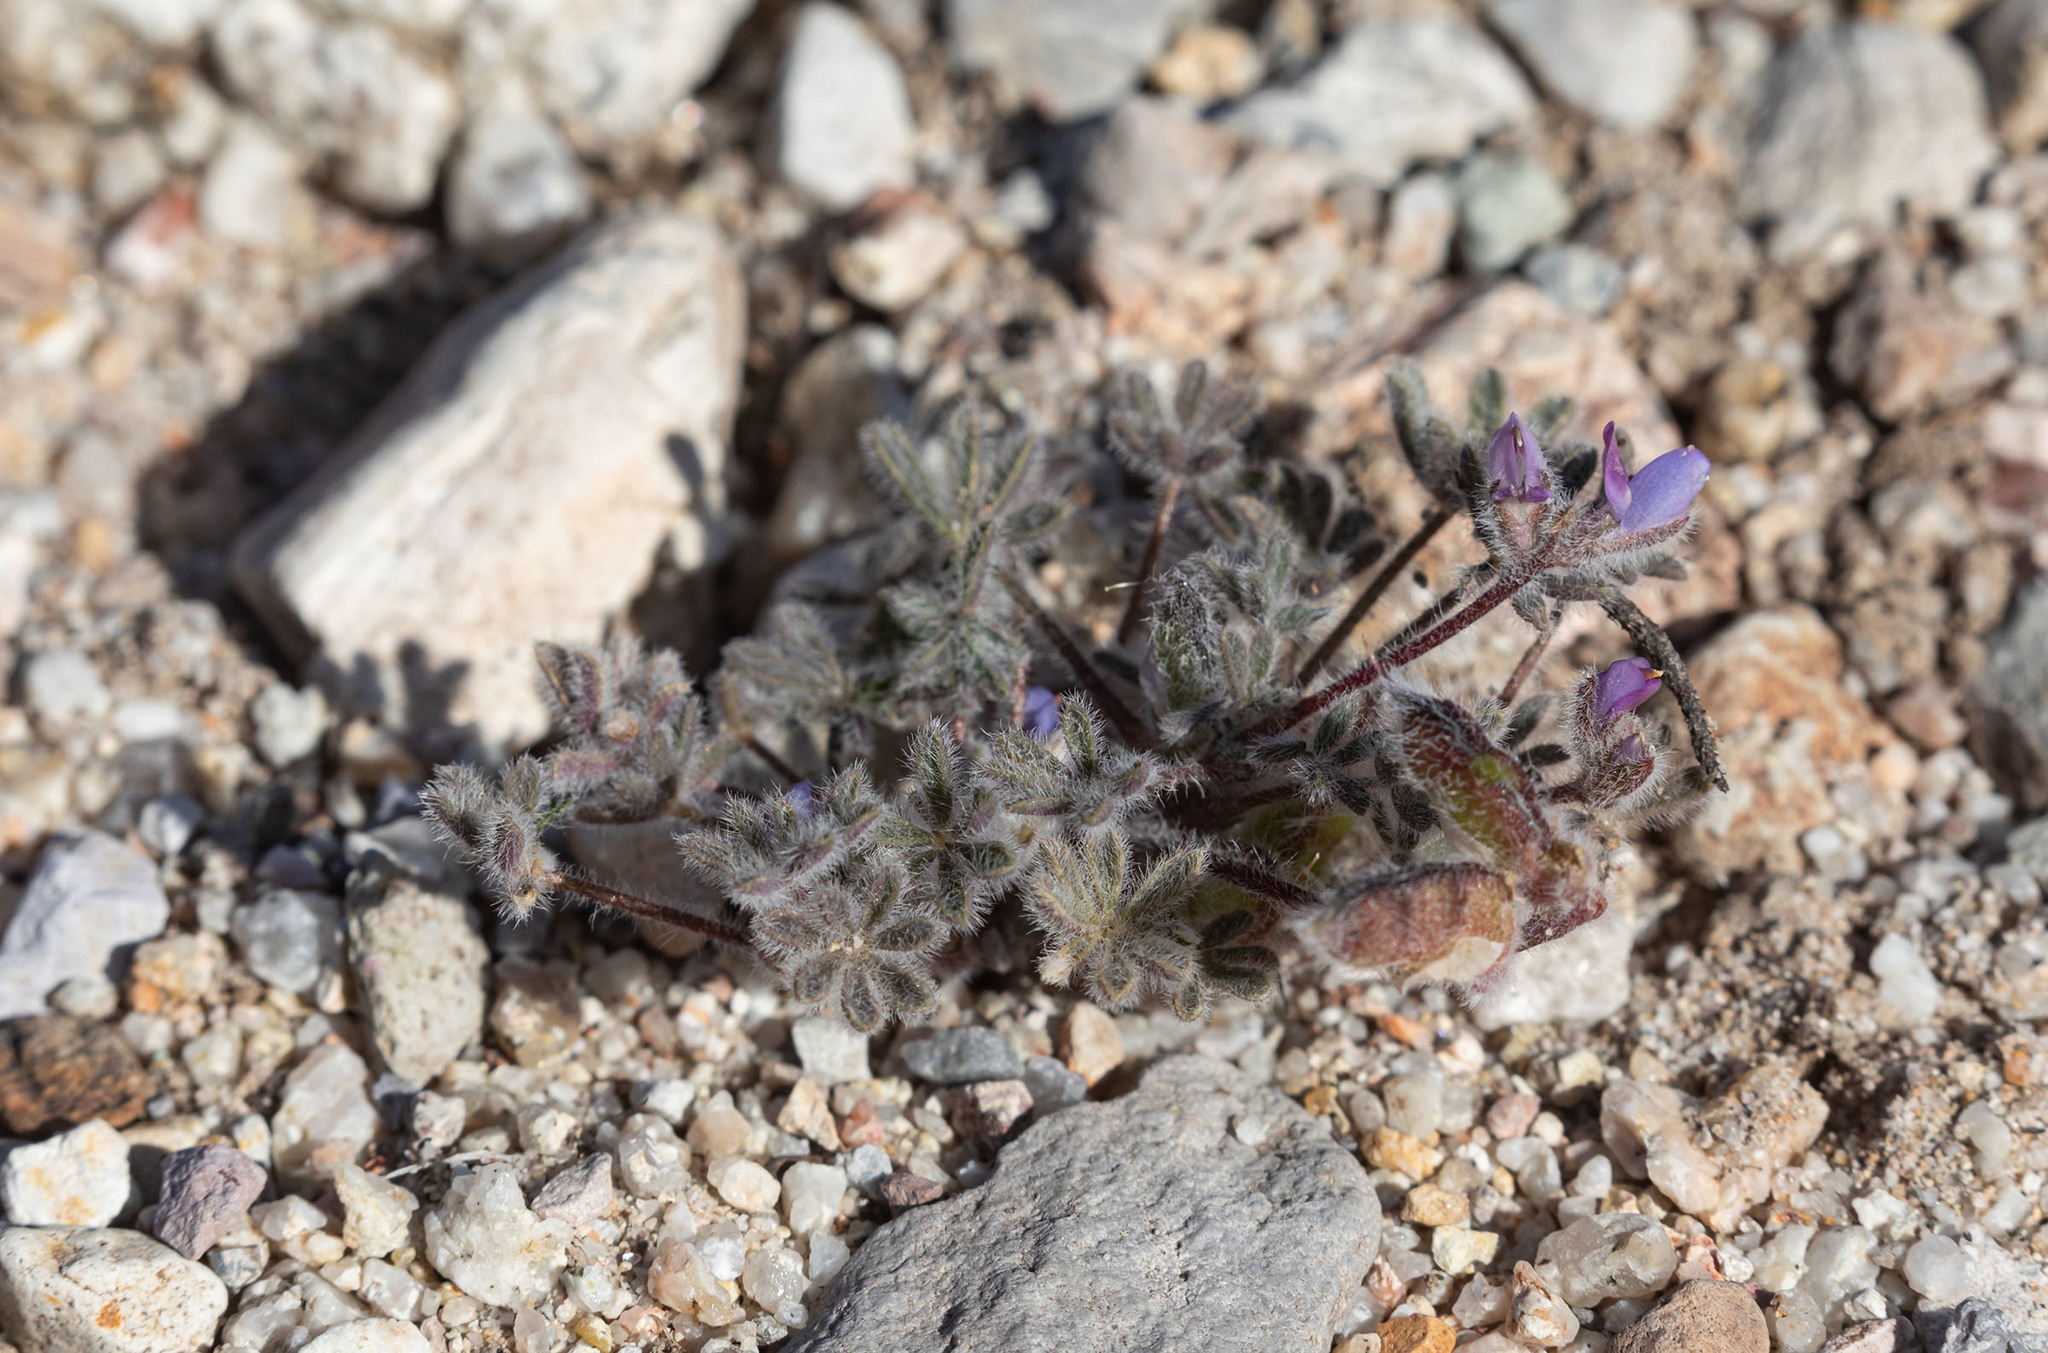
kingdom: Plantae
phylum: Tracheophyta
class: Magnoliopsida
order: Fabales
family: Fabaceae
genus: Lupinus
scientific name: Lupinus concinnus
